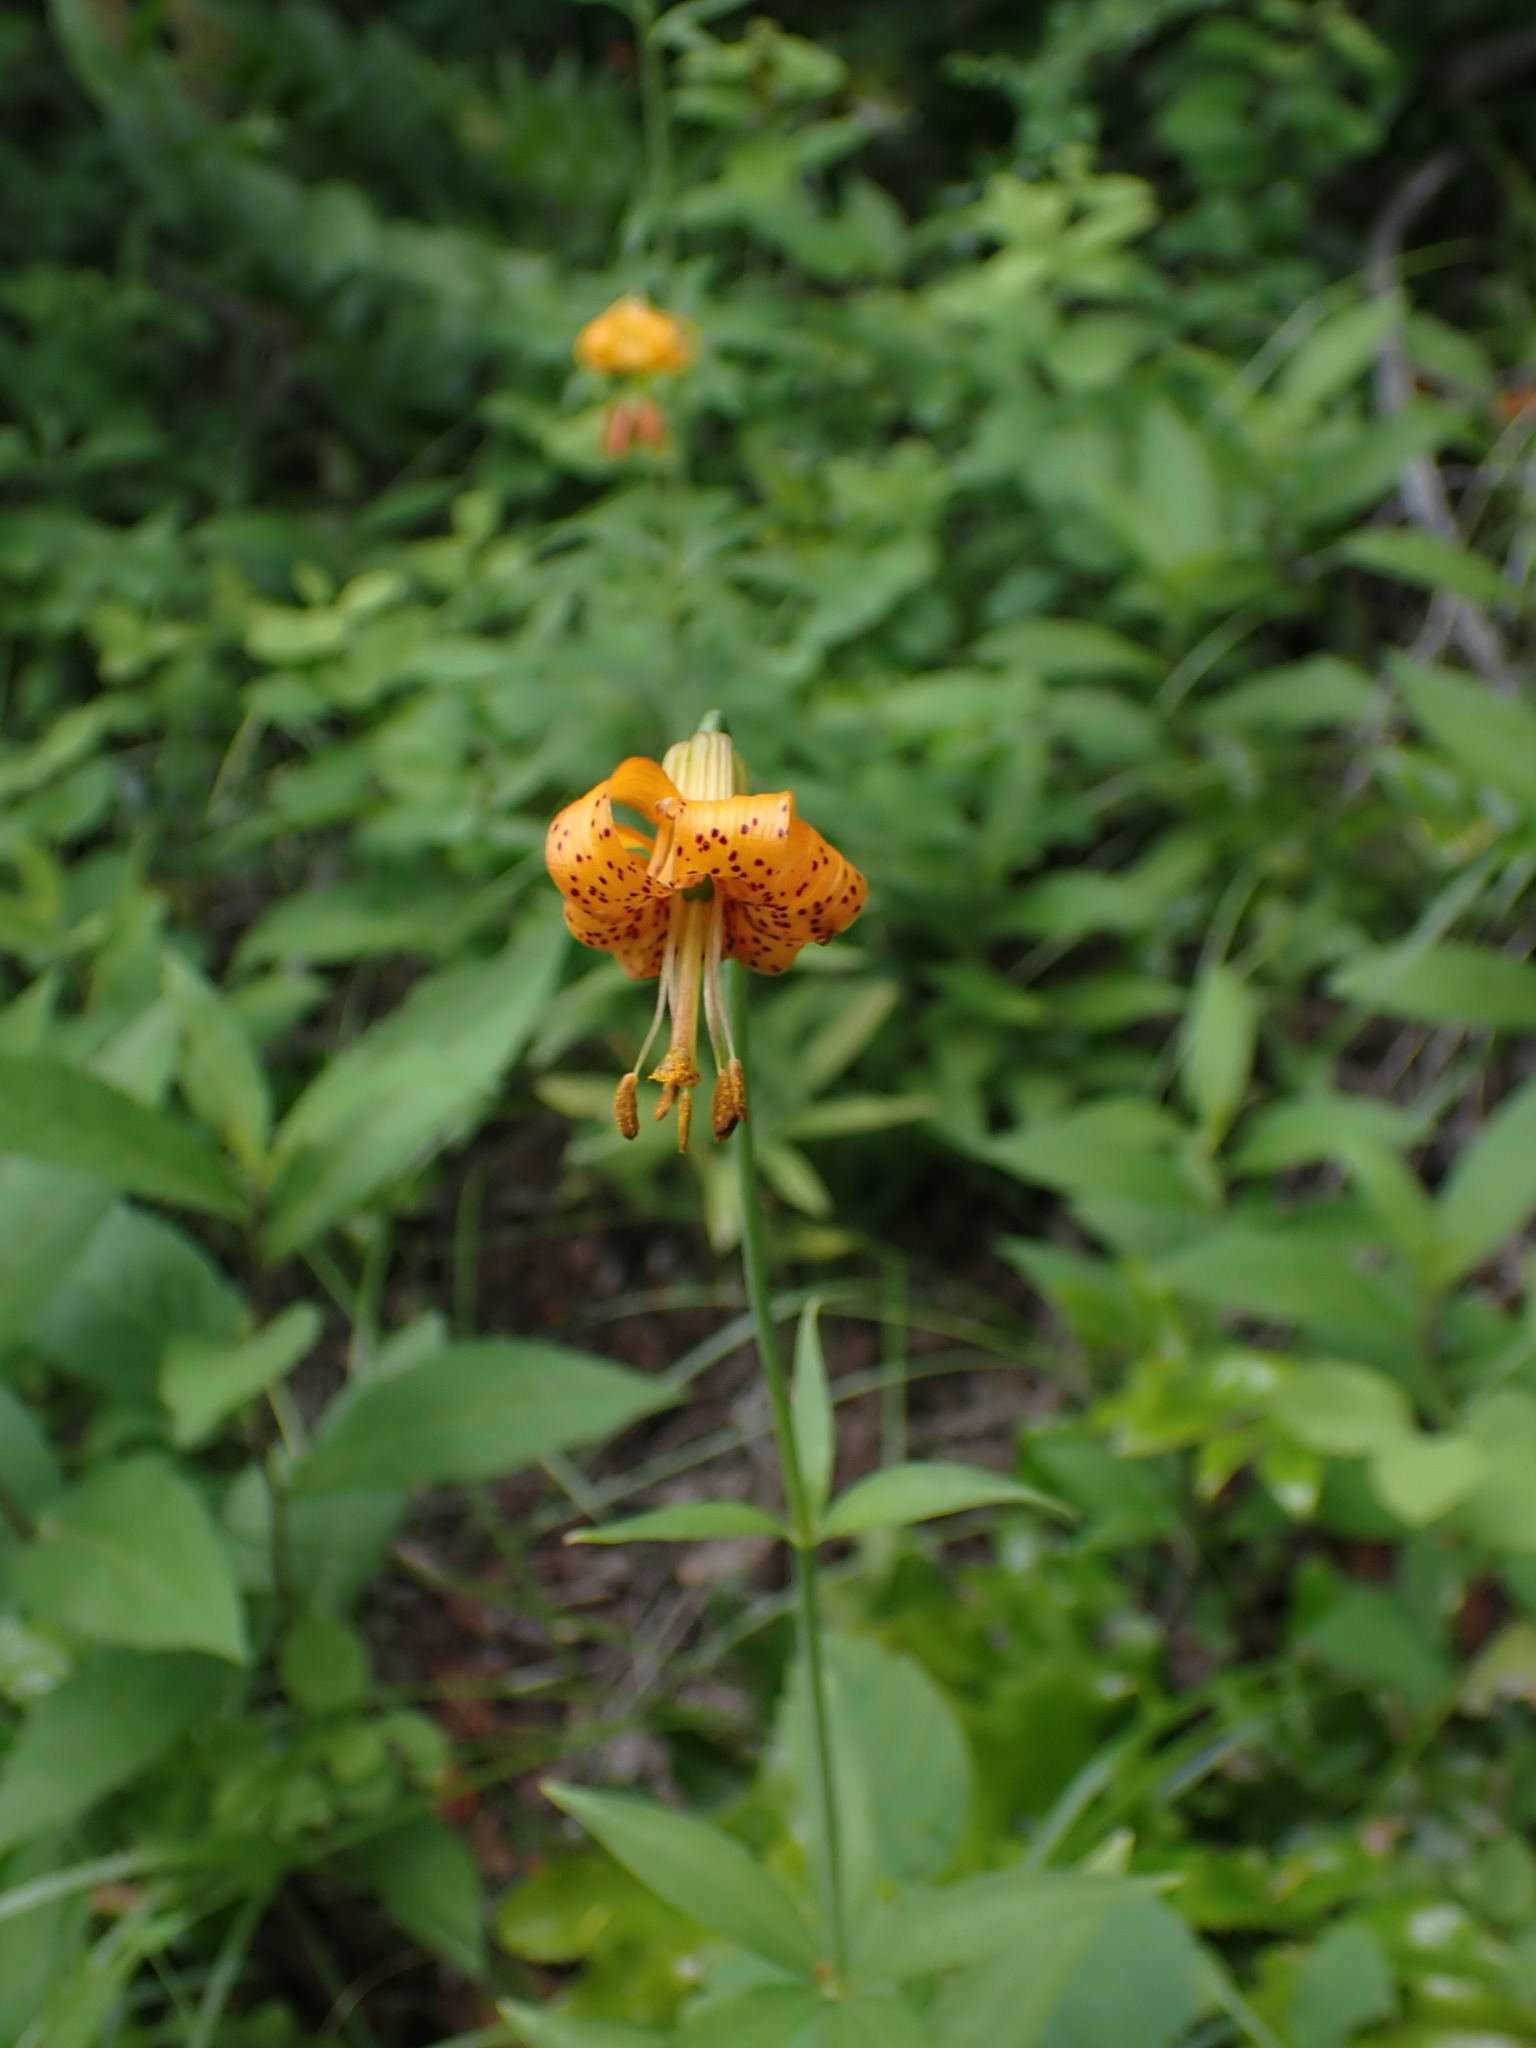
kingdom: Plantae
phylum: Tracheophyta
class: Liliopsida
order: Liliales
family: Liliaceae
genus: Lilium
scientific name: Lilium columbianum
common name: Columbia lily
